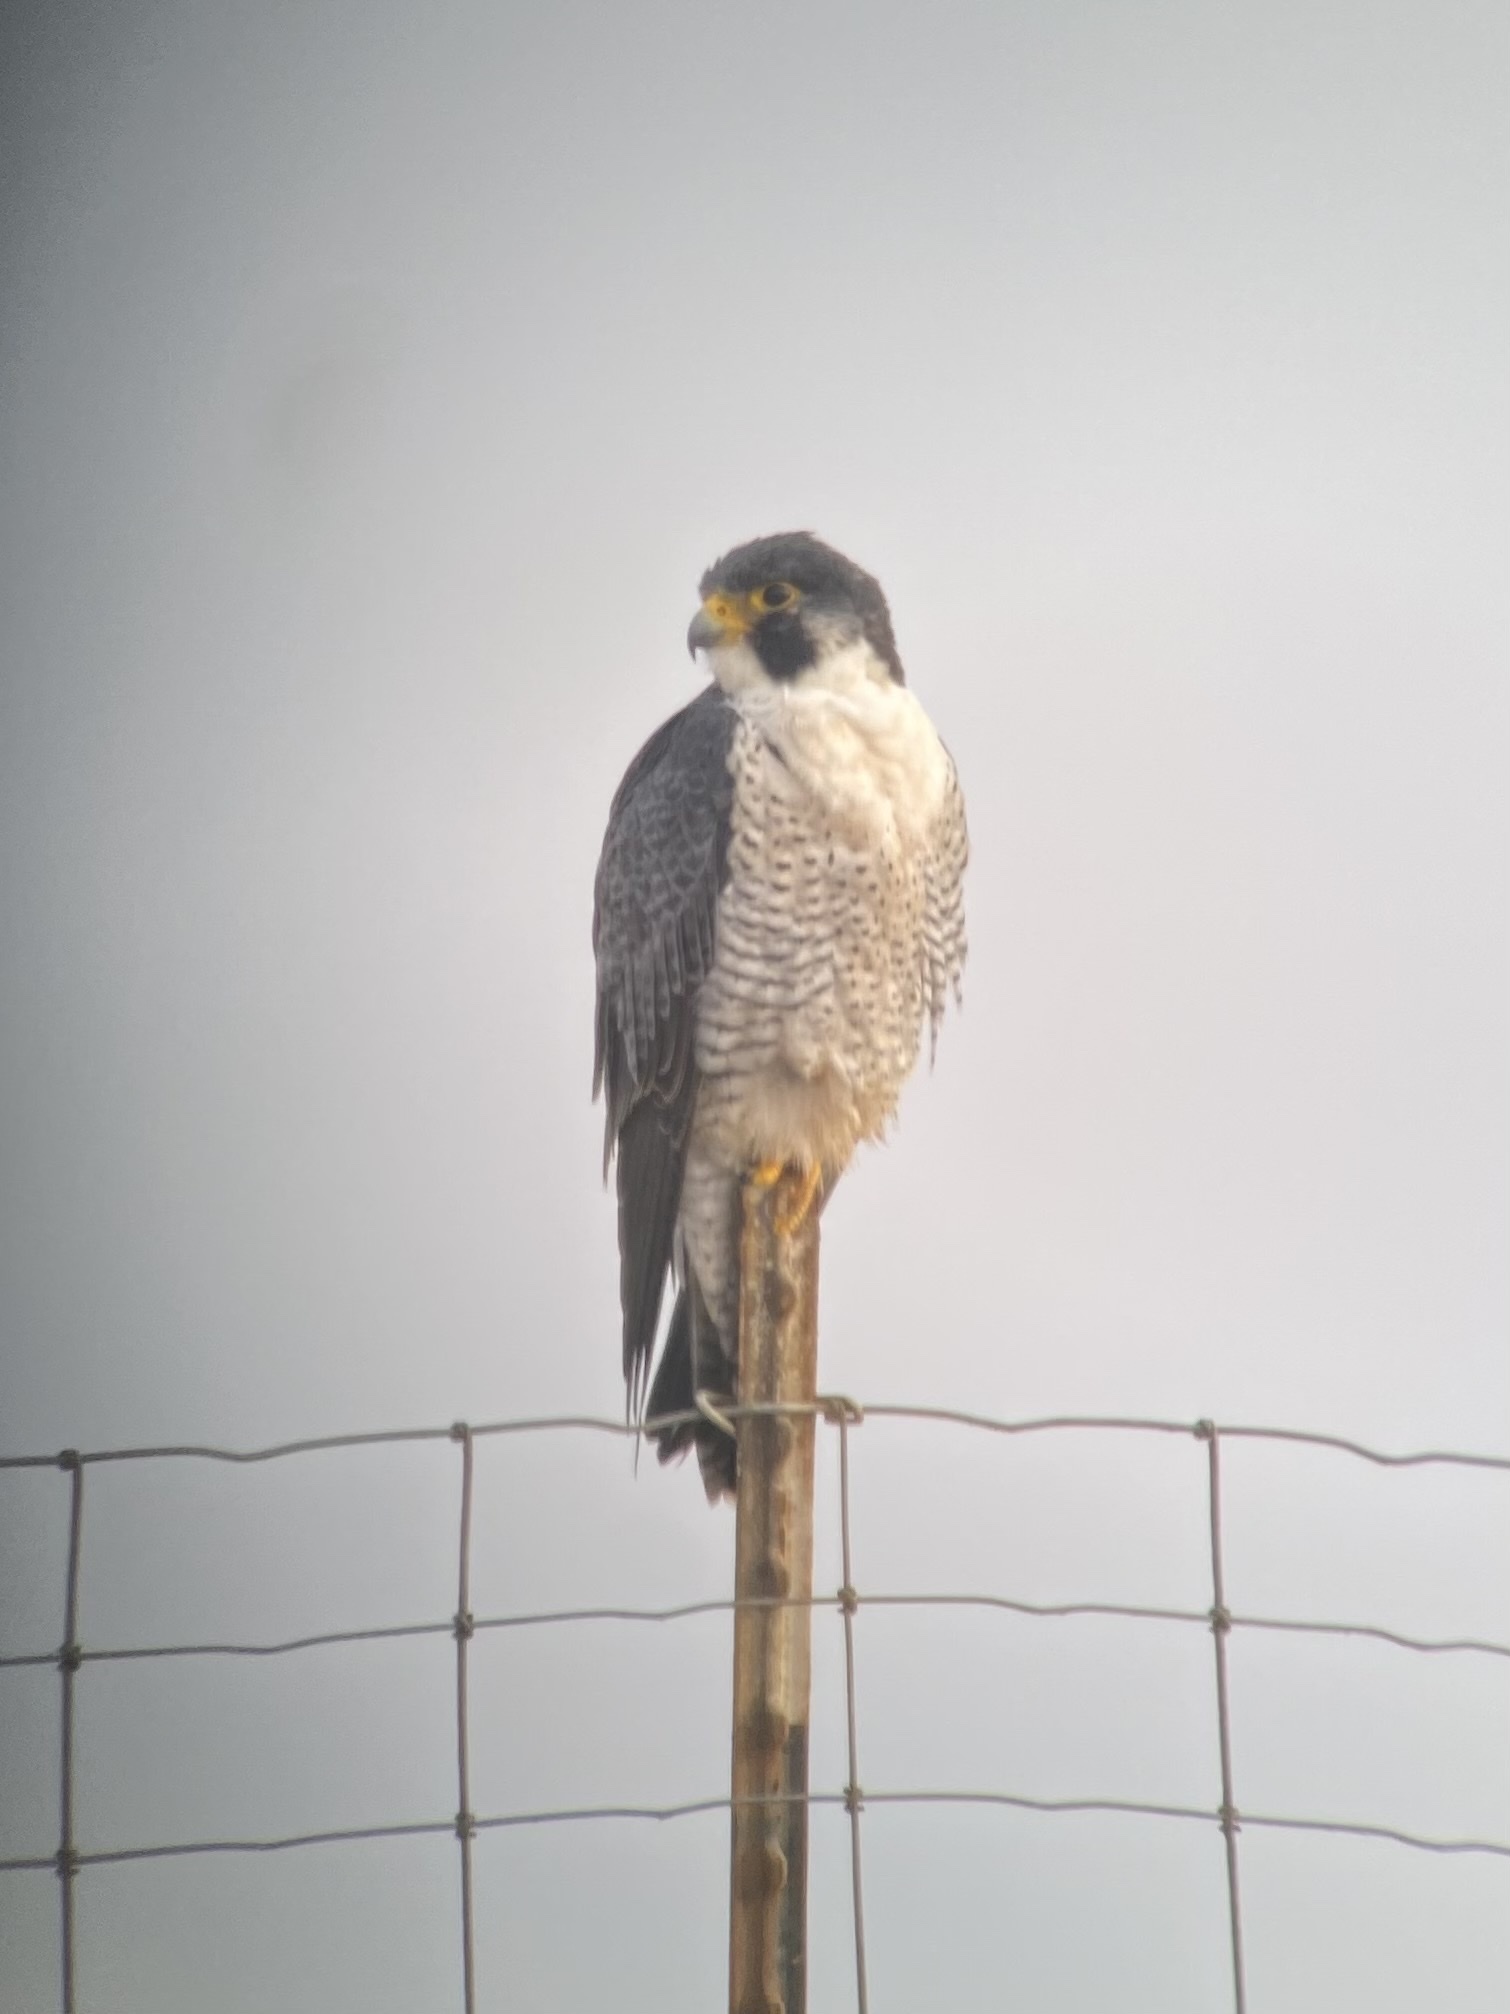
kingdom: Animalia
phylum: Chordata
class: Aves
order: Falconiformes
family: Falconidae
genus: Falco
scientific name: Falco peregrinus
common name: Peregrine falcon
